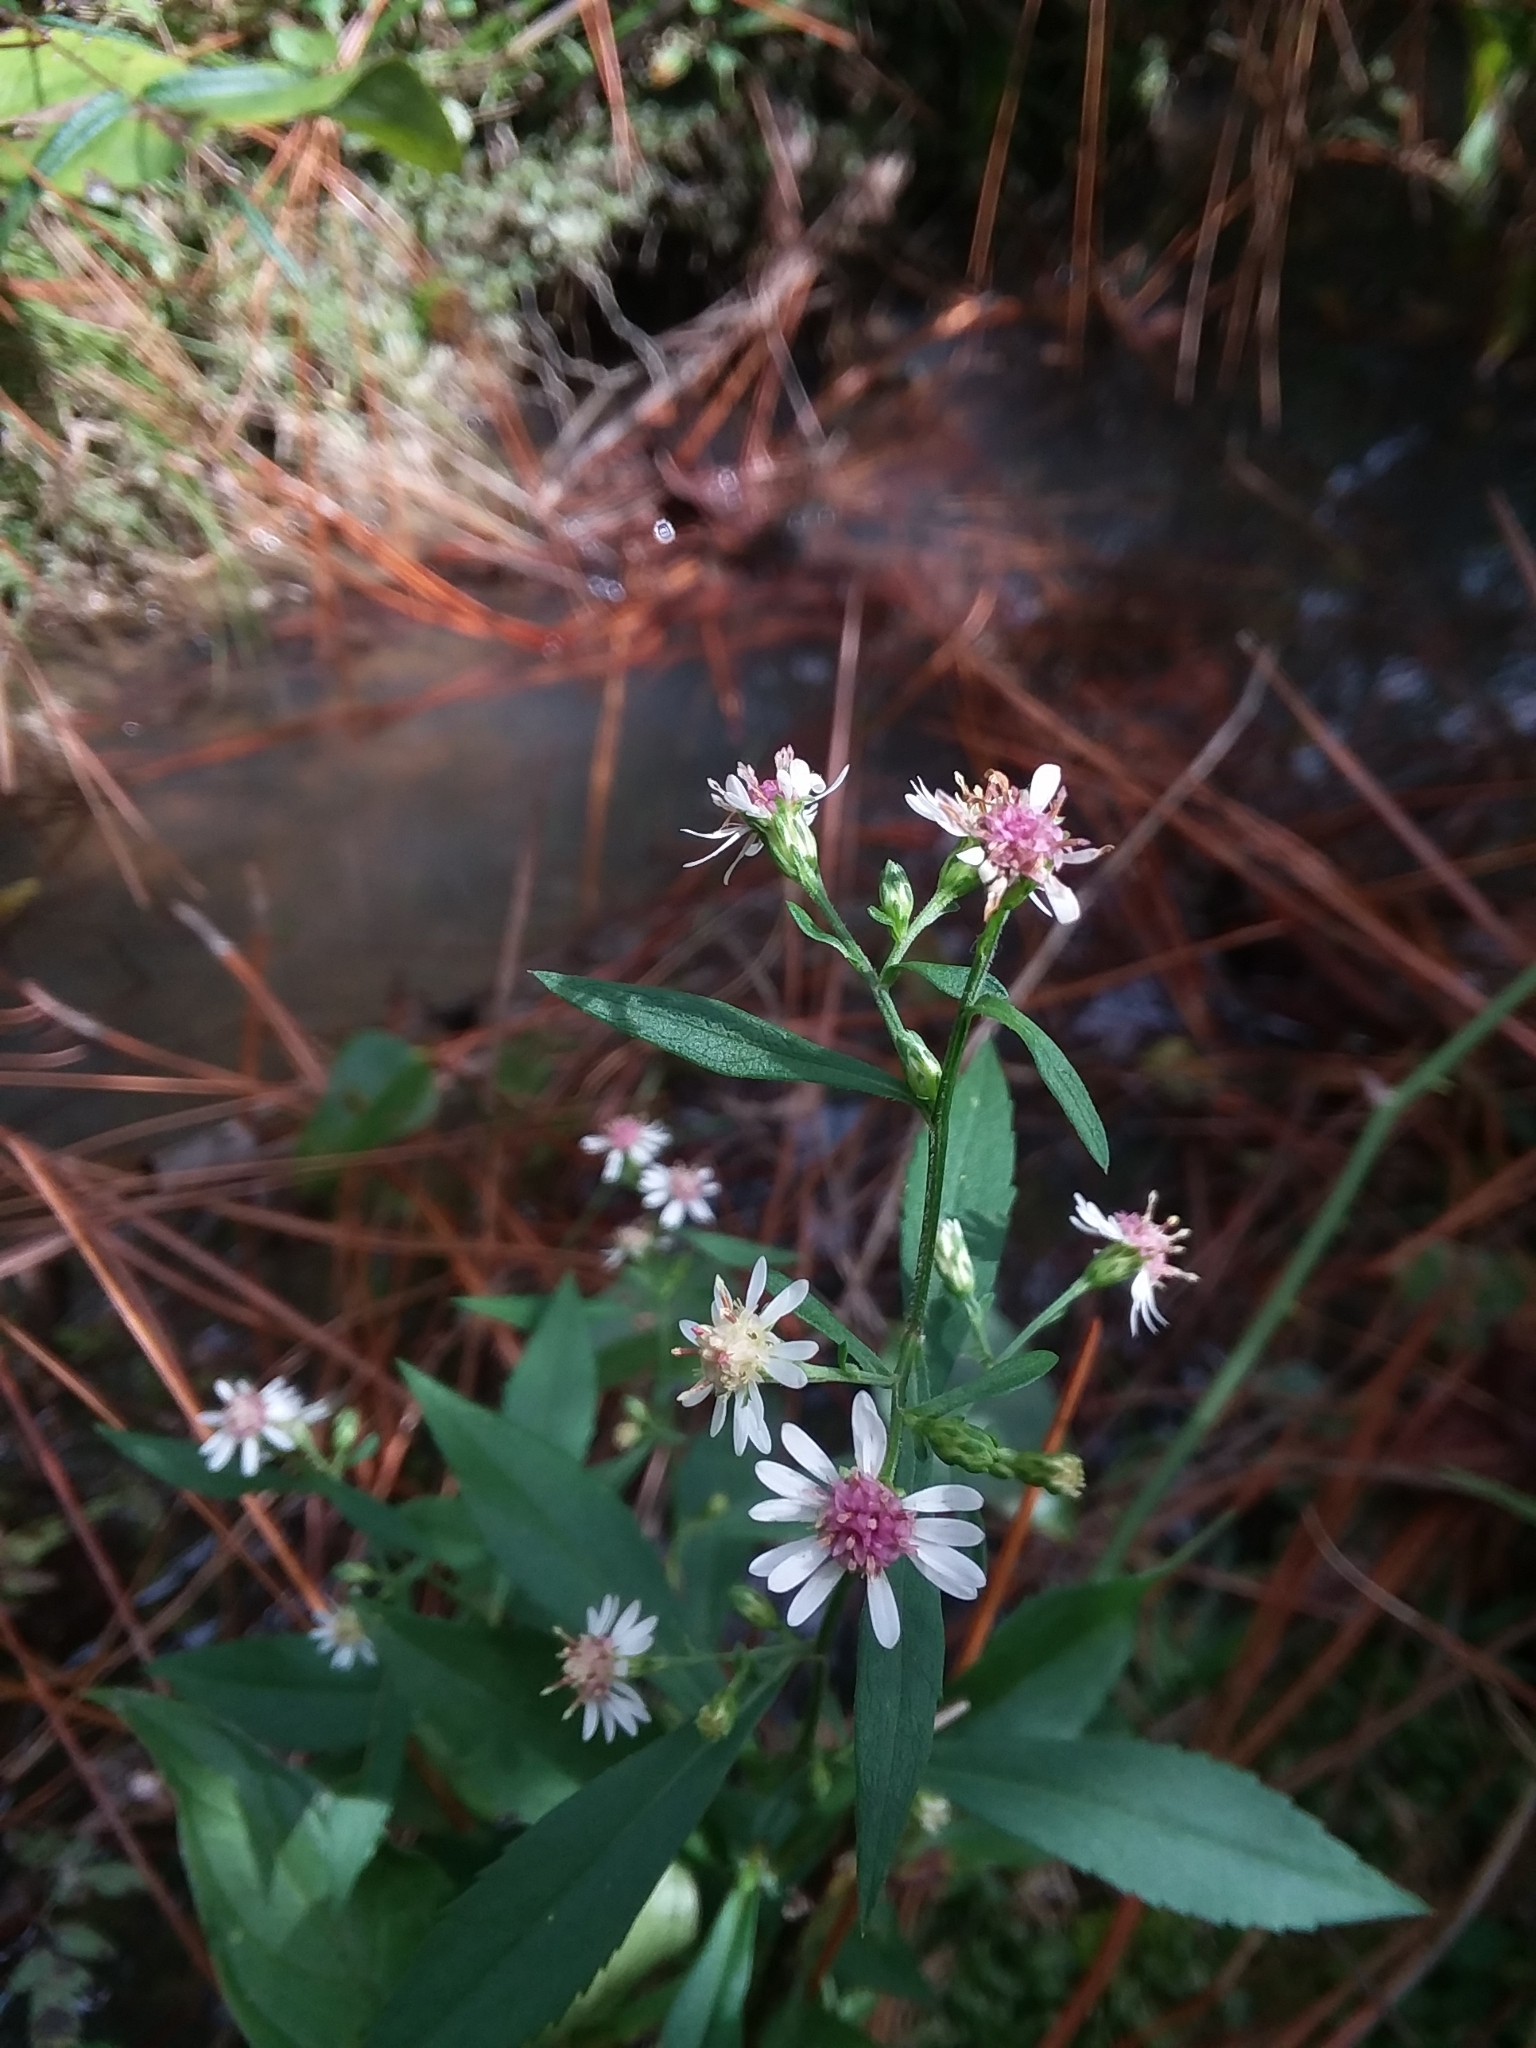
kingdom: Plantae
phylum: Tracheophyta
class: Magnoliopsida
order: Asterales
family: Asteraceae
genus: Symphyotrichum
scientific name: Symphyotrichum lateriflorum
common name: Calico aster
